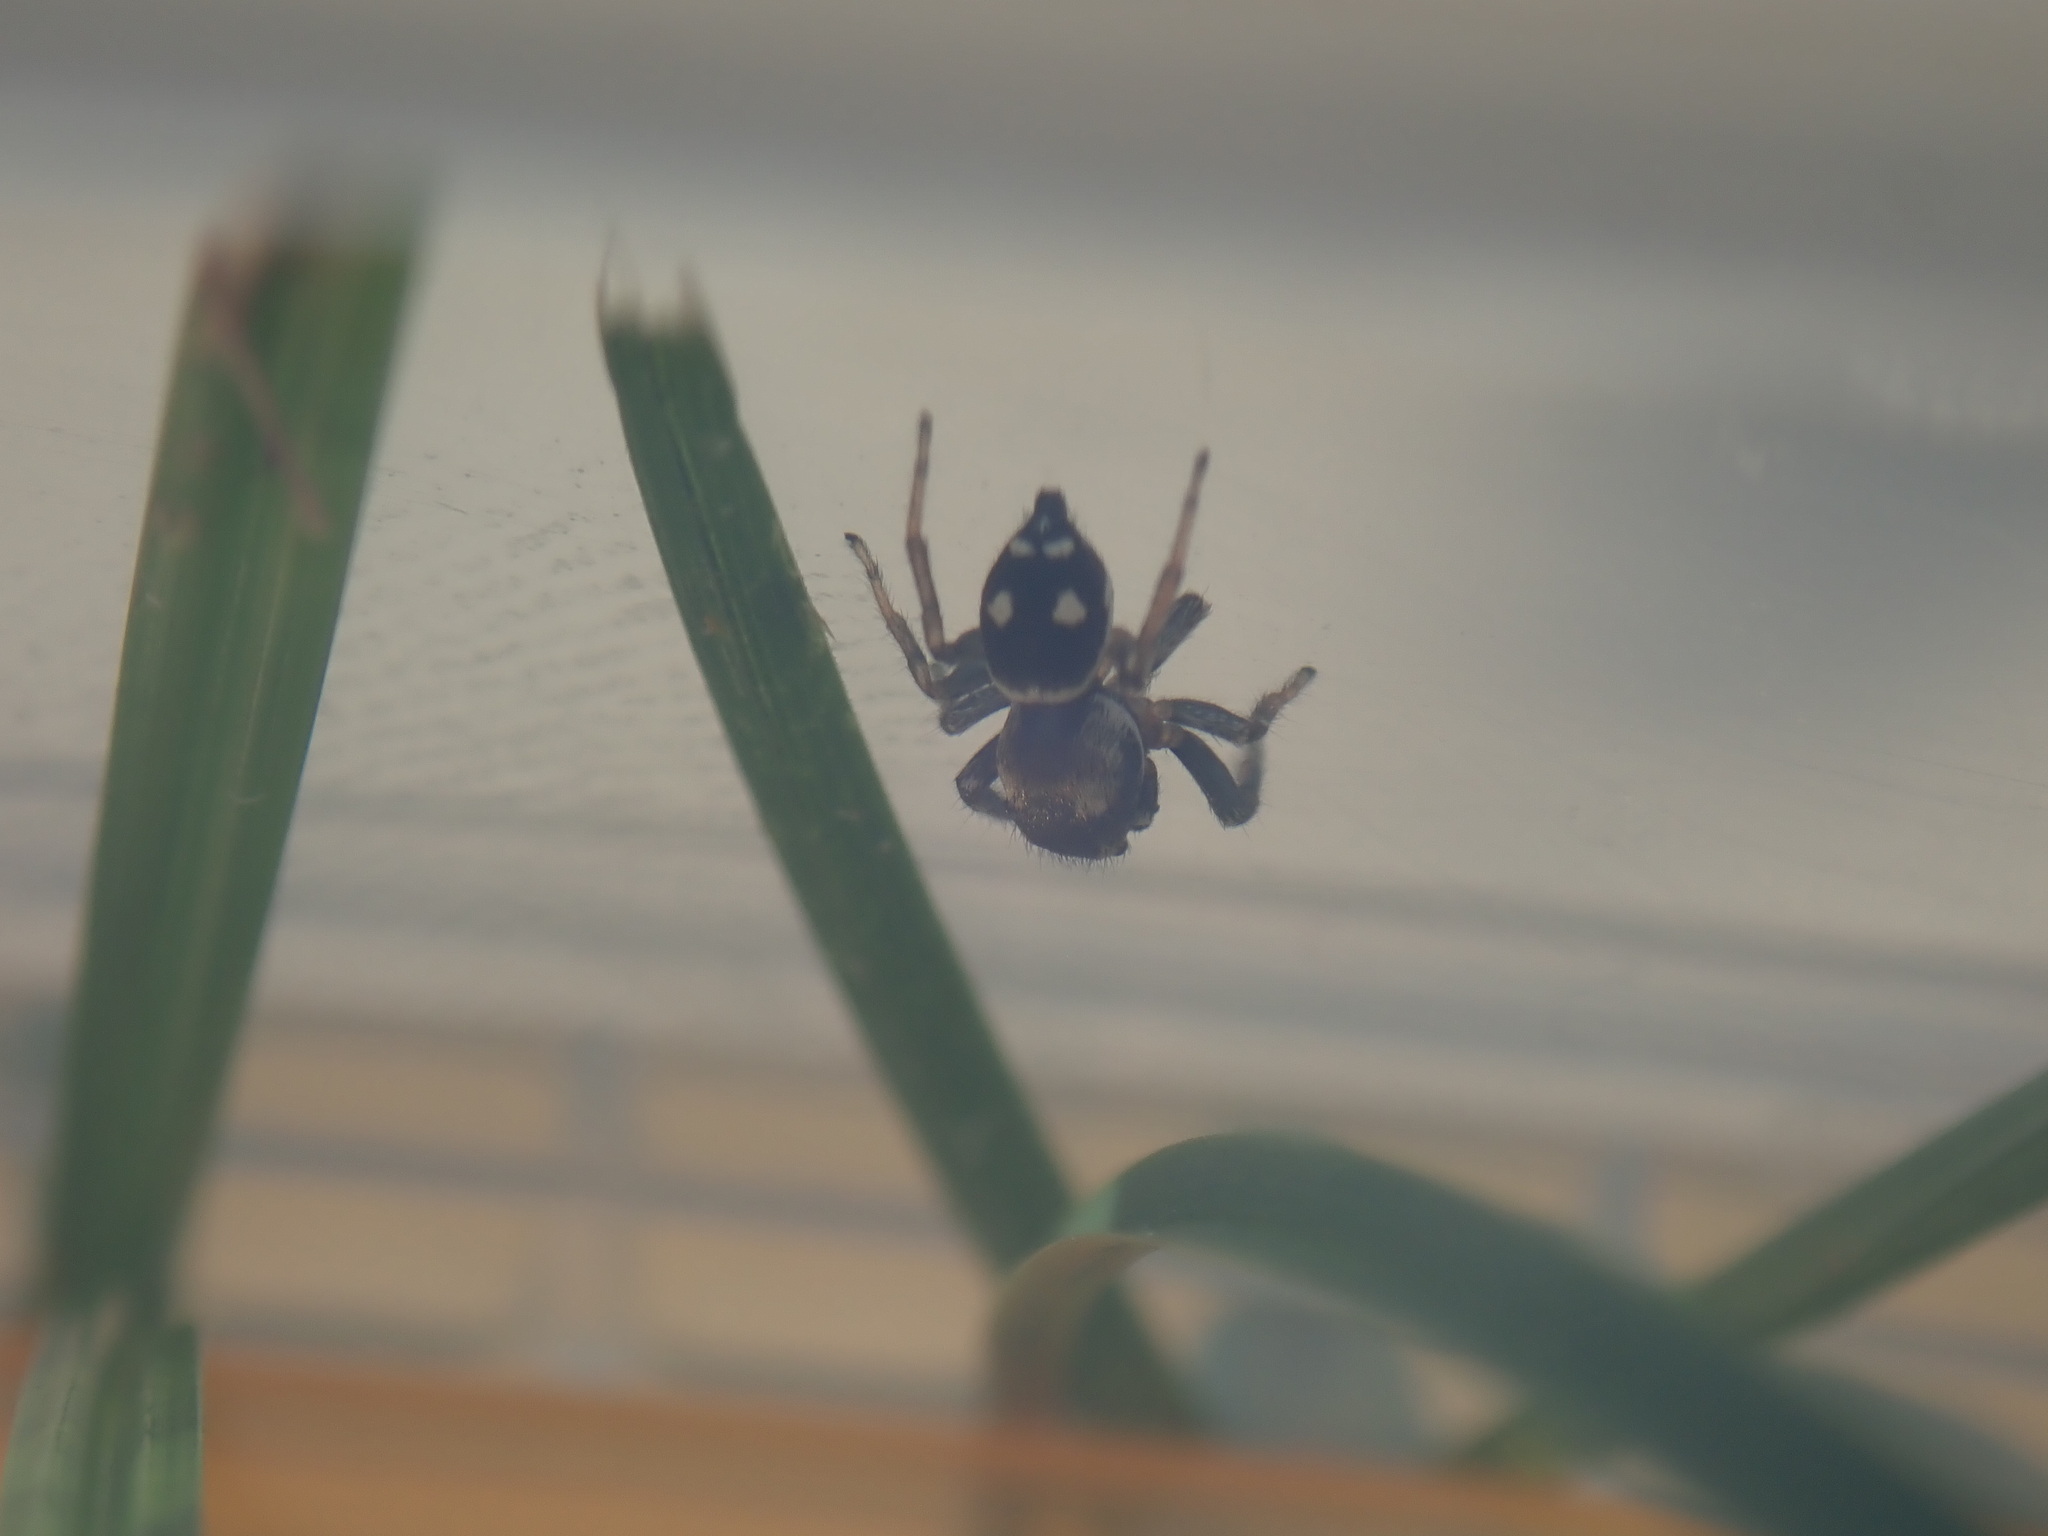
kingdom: Animalia
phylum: Arthropoda
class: Arachnida
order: Araneae
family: Salticidae
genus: Heliophanus
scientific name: Heliophanus apiatus
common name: Sun jumping spider
